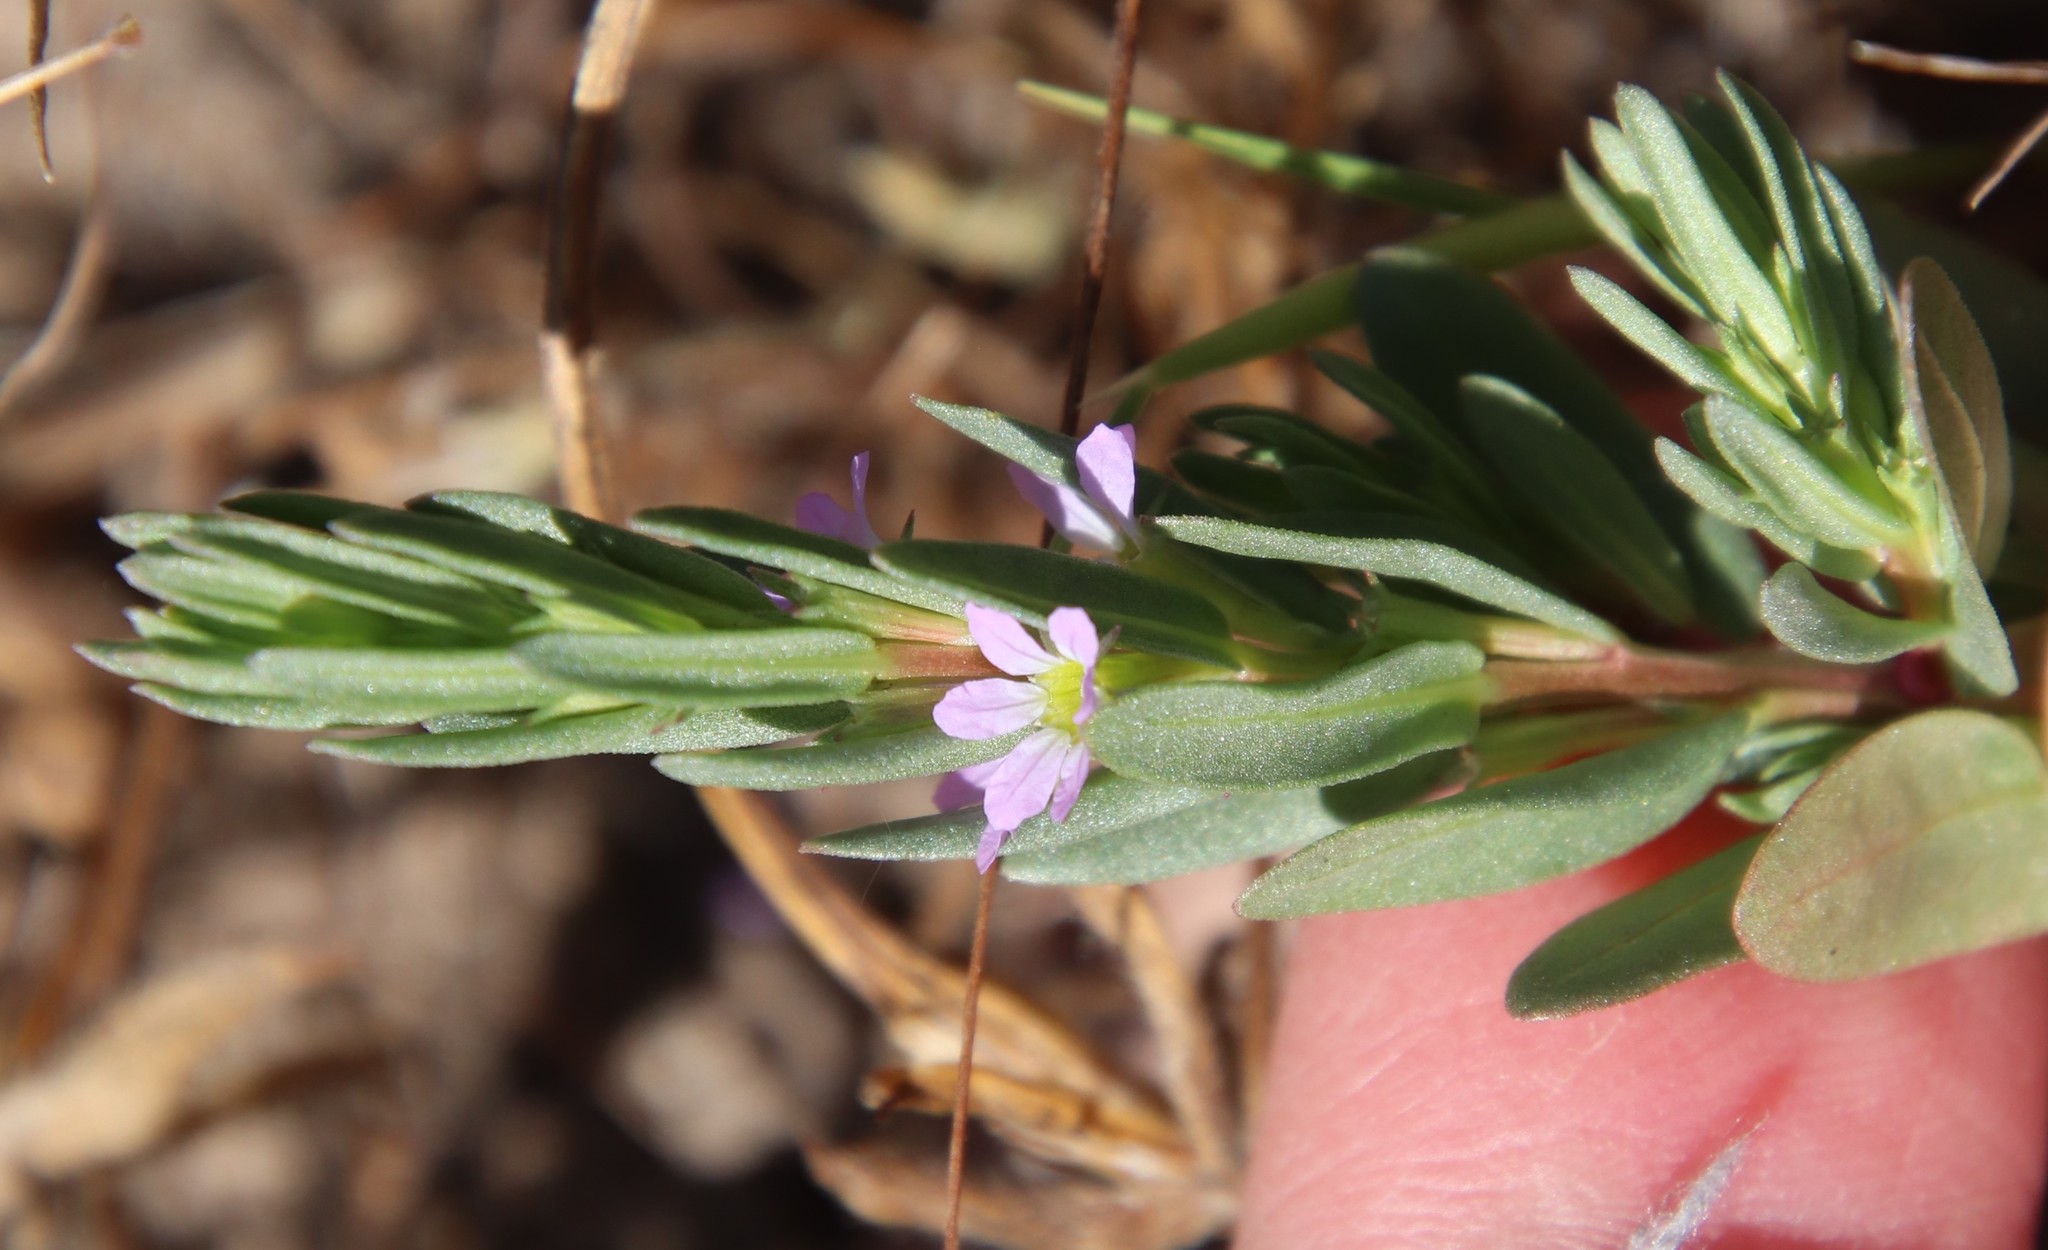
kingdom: Plantae
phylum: Tracheophyta
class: Magnoliopsida
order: Myrtales
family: Lythraceae
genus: Lythrum
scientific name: Lythrum hyssopifolia
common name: Grass-poly
